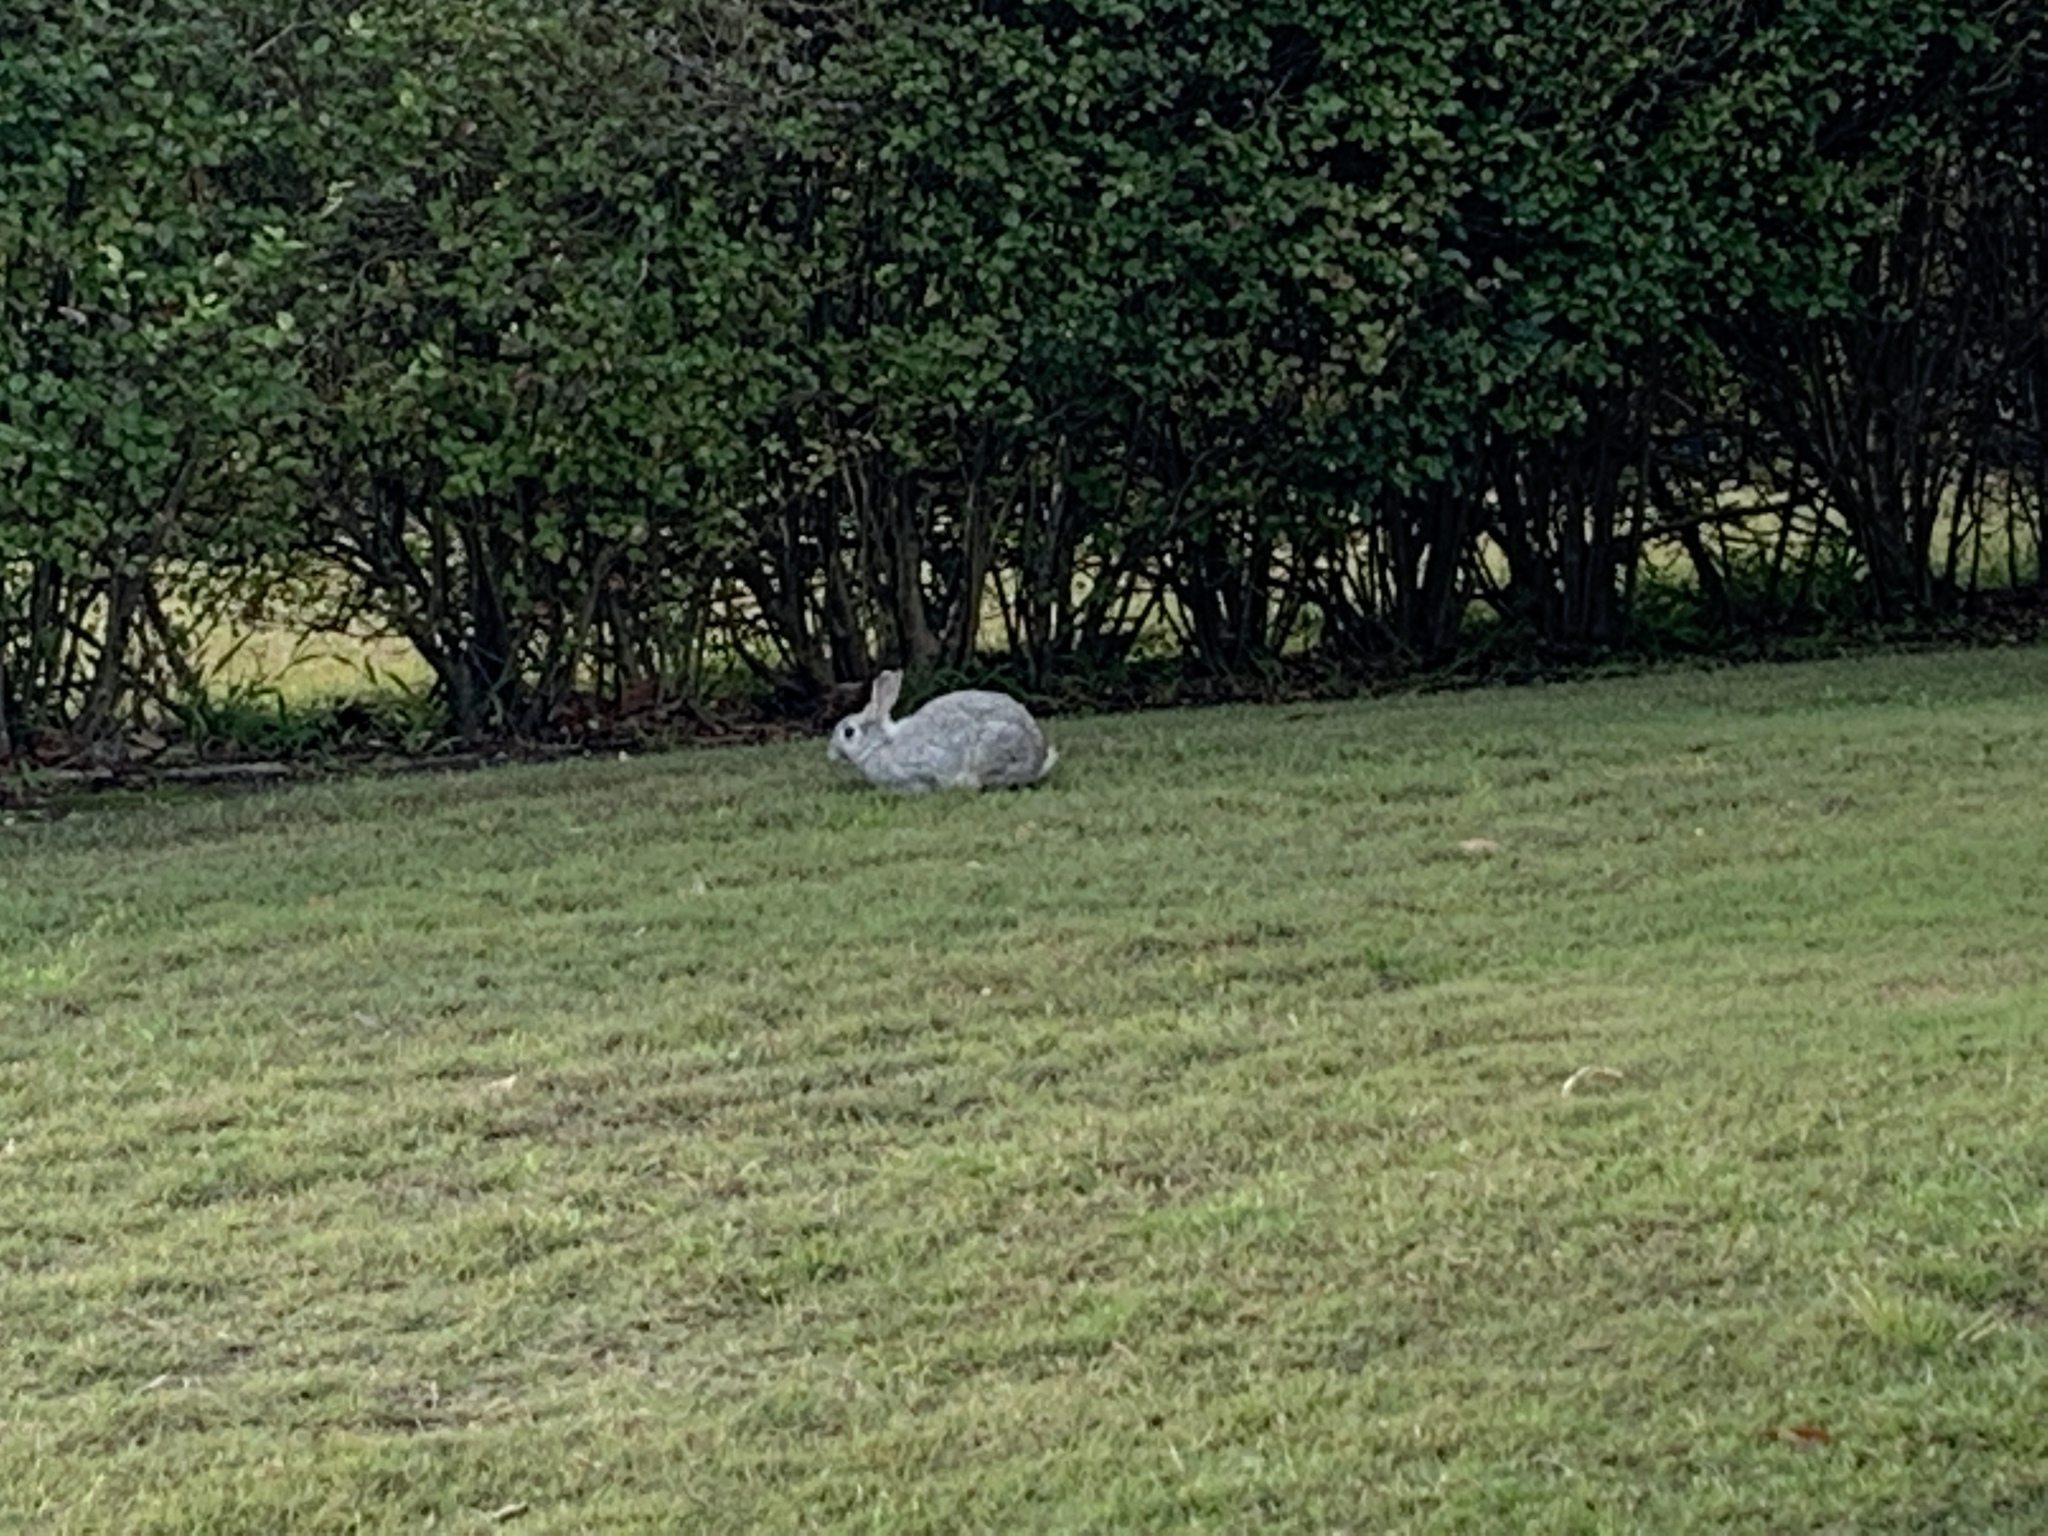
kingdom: Animalia
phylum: Chordata
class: Mammalia
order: Lagomorpha
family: Leporidae
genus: Oryctolagus
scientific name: Oryctolagus cuniculus
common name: European rabbit
